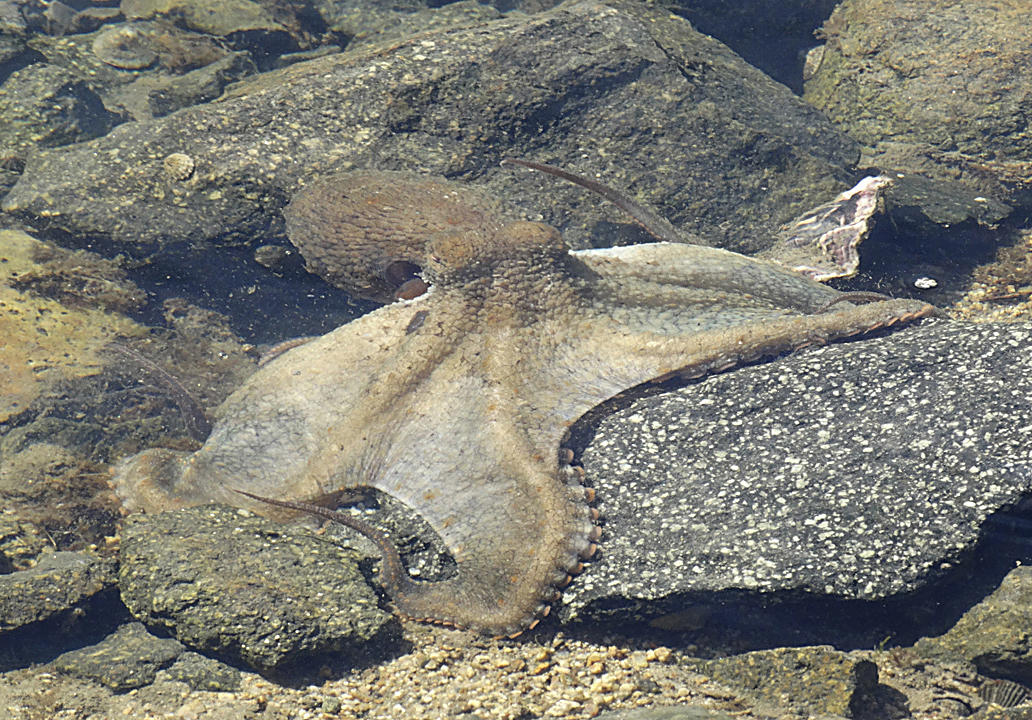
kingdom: Animalia
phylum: Mollusca
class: Cephalopoda
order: Octopoda
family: Octopodidae
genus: Octopus
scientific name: Octopus bimaculoides
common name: California two-spot octopus
